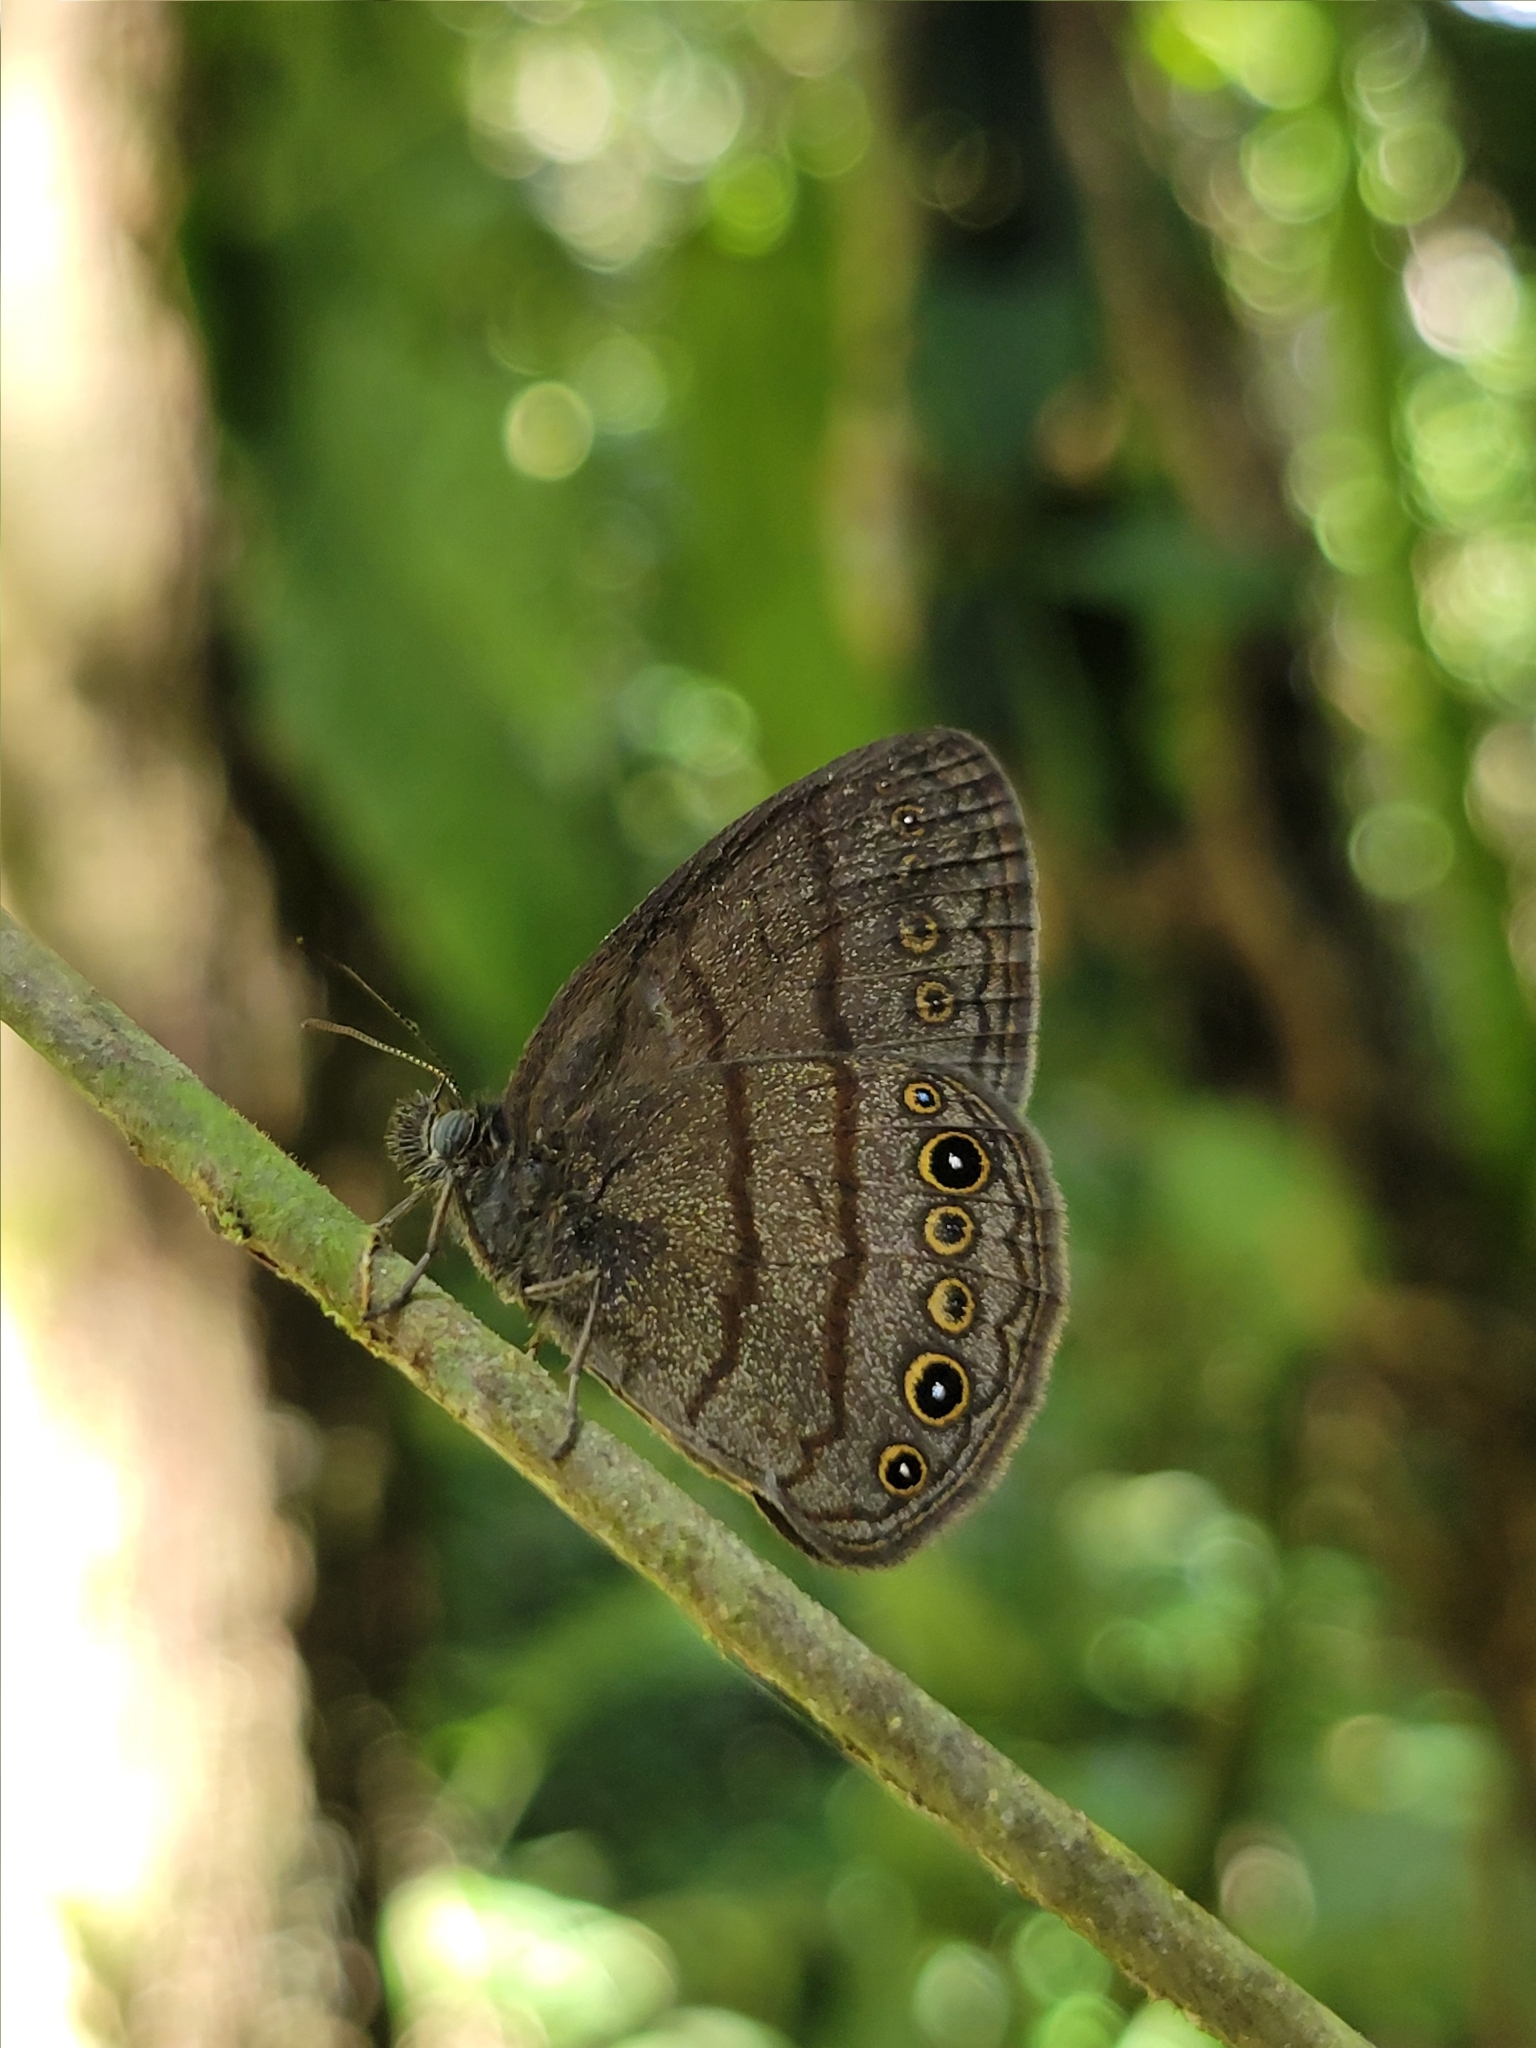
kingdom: Animalia
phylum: Arthropoda
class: Insecta
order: Lepidoptera
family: Nymphalidae
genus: Hermeuptychia
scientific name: Hermeuptychia hermes
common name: Hermes satyr
